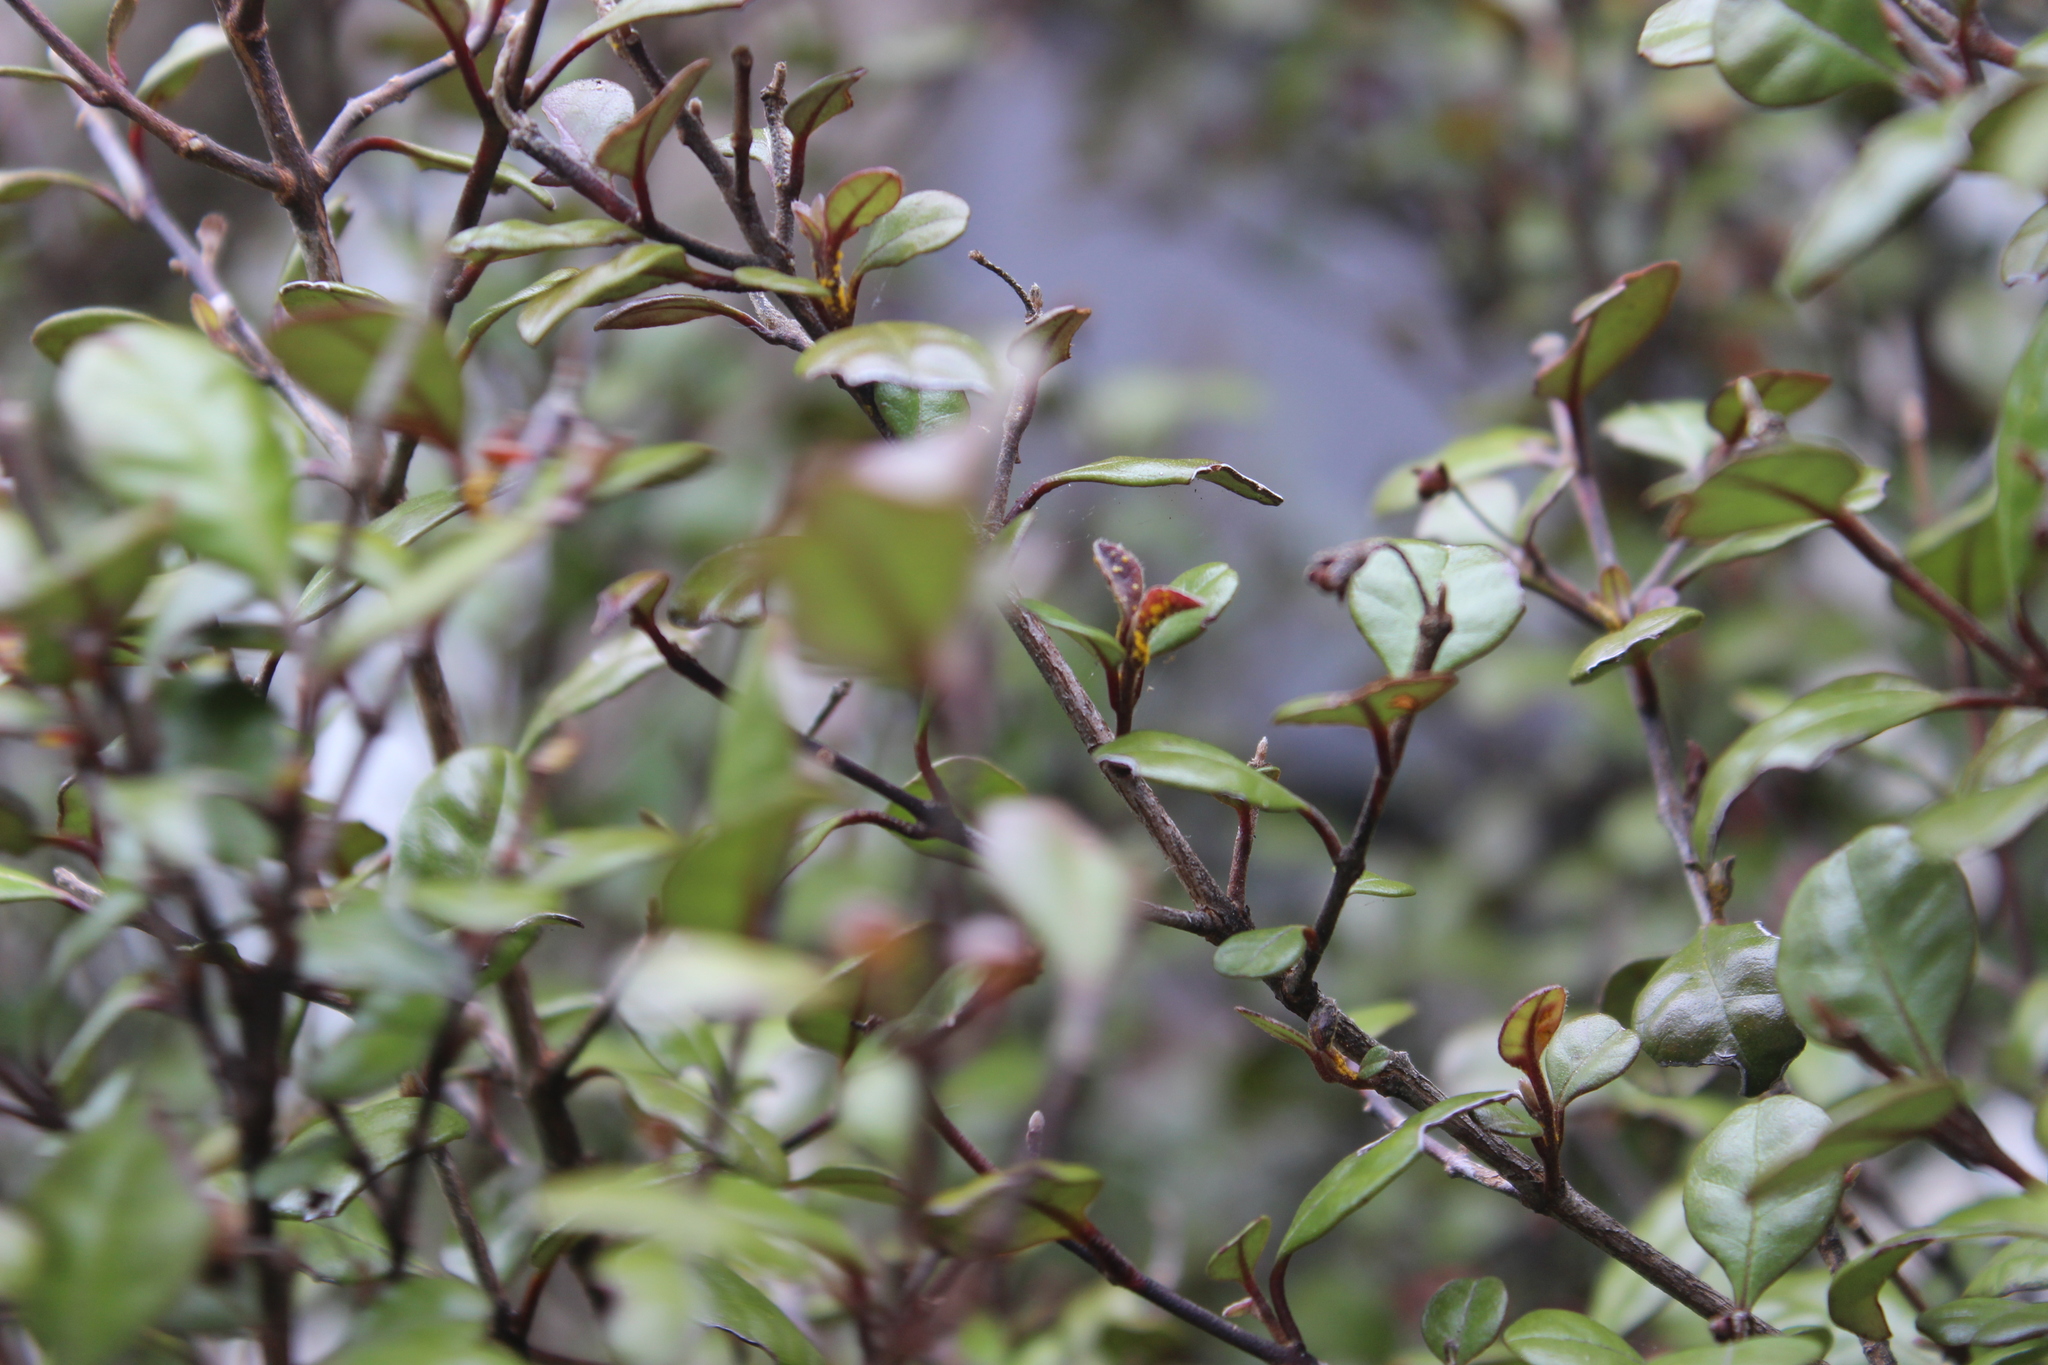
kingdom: Fungi
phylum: Basidiomycota
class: Pucciniomycetes
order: Pucciniales
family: Sphaerophragmiaceae
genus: Austropuccinia
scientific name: Austropuccinia psidii
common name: Myrtle rust
